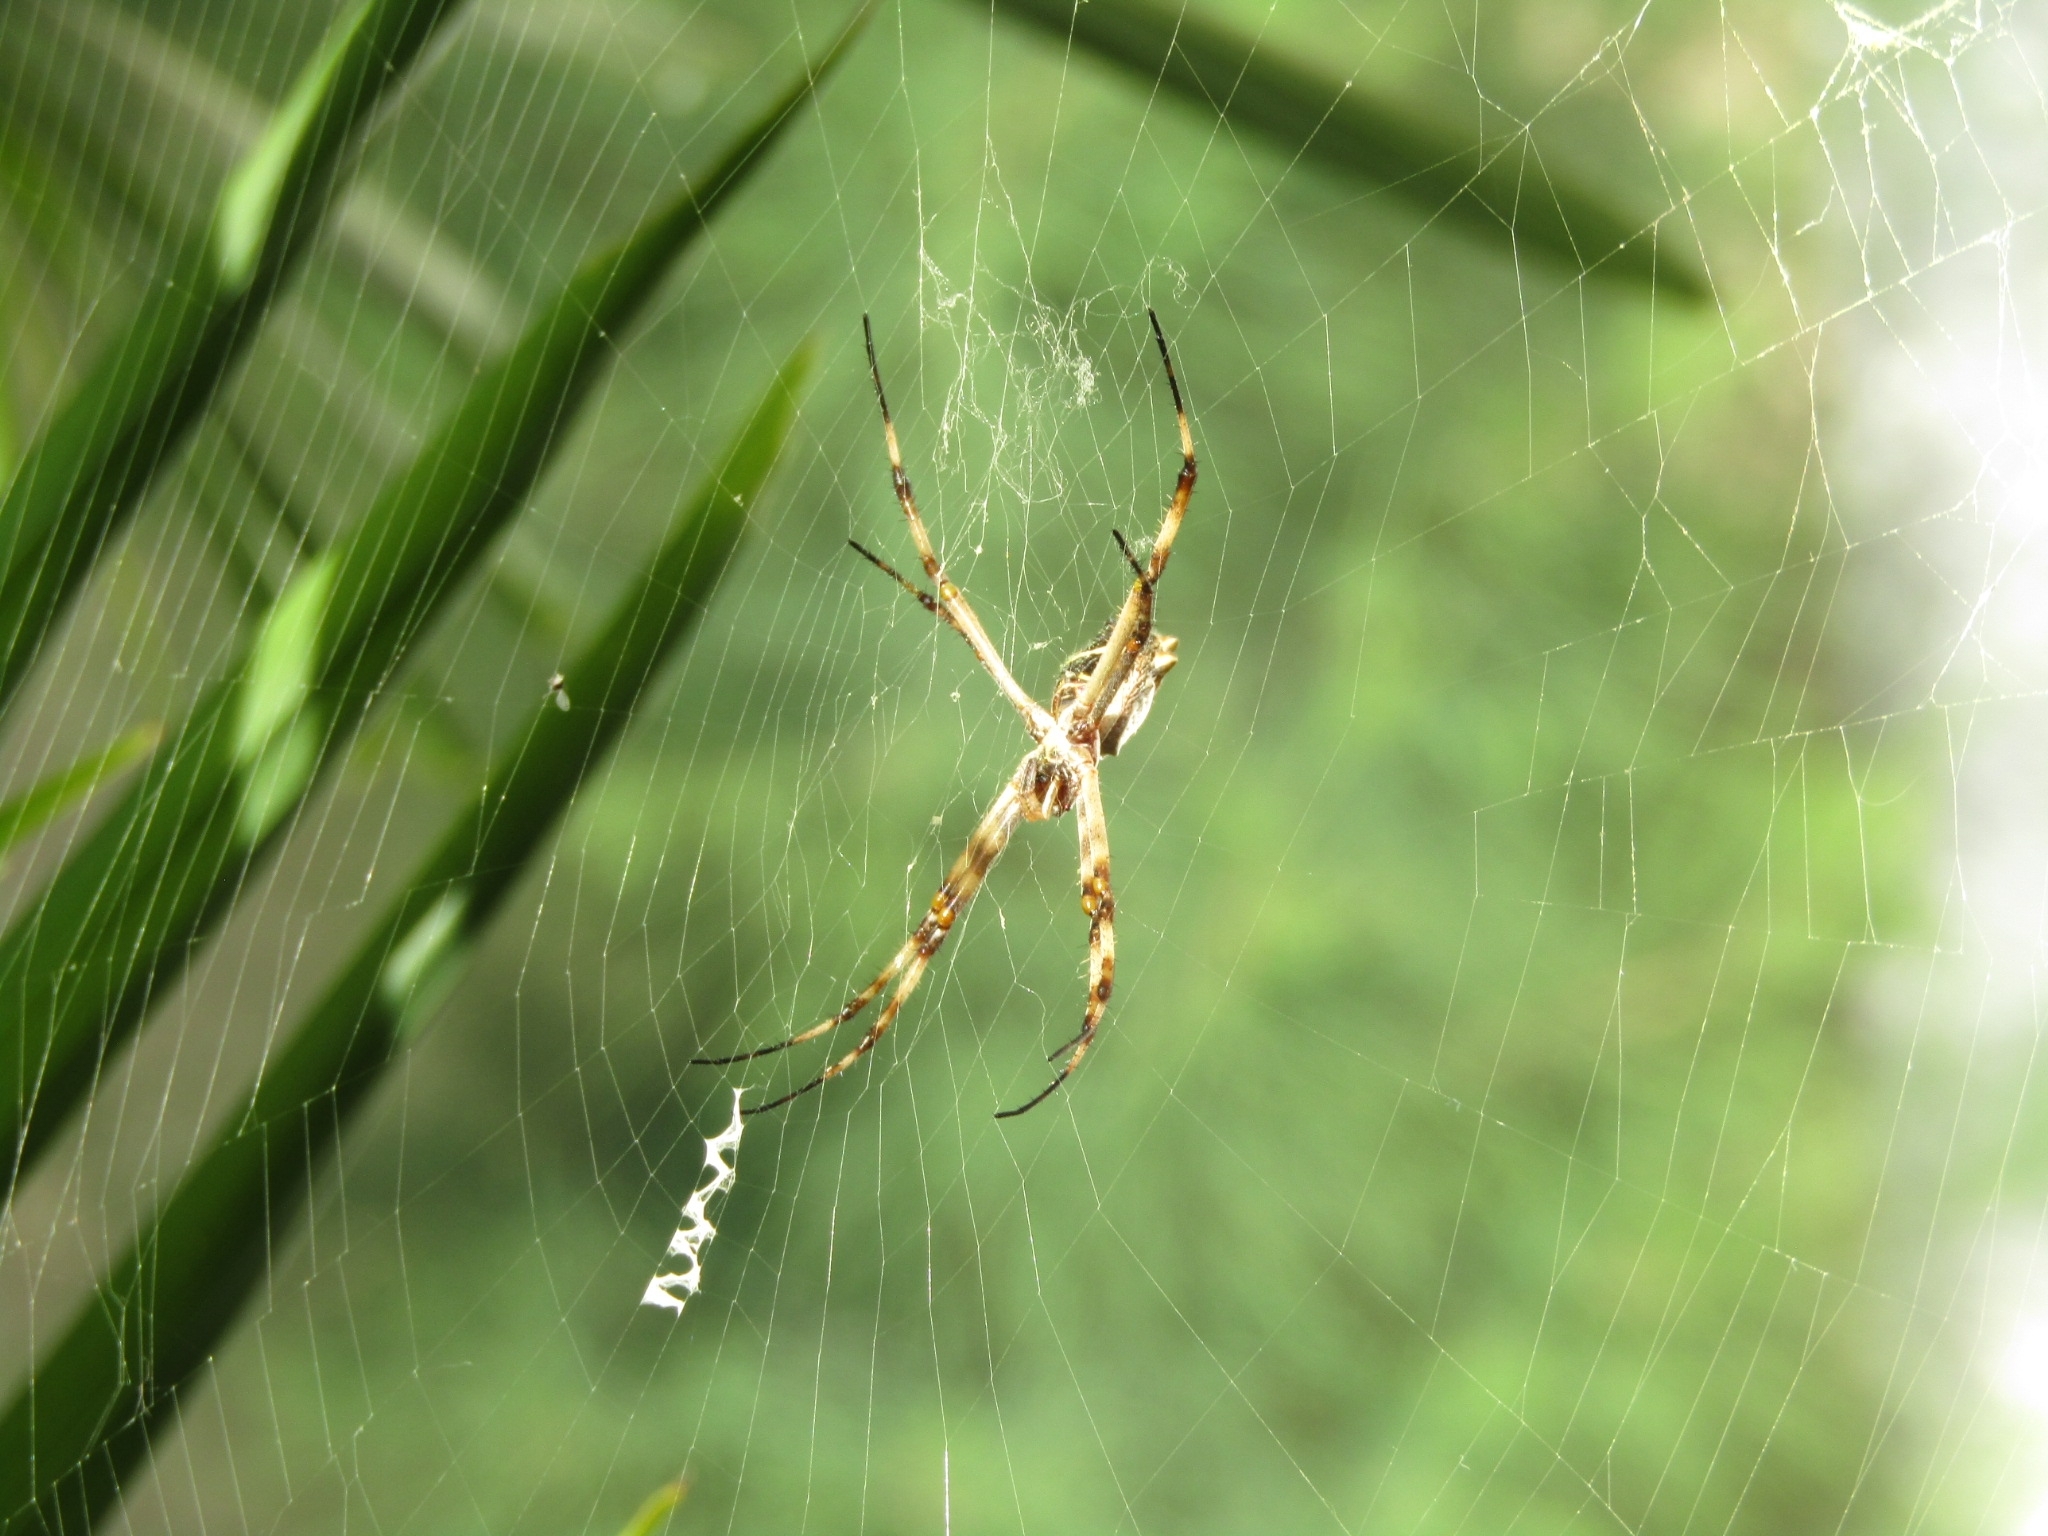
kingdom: Animalia
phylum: Arthropoda
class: Arachnida
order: Araneae
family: Araneidae
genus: Argiope
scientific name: Argiope argentata
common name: Orb weavers
